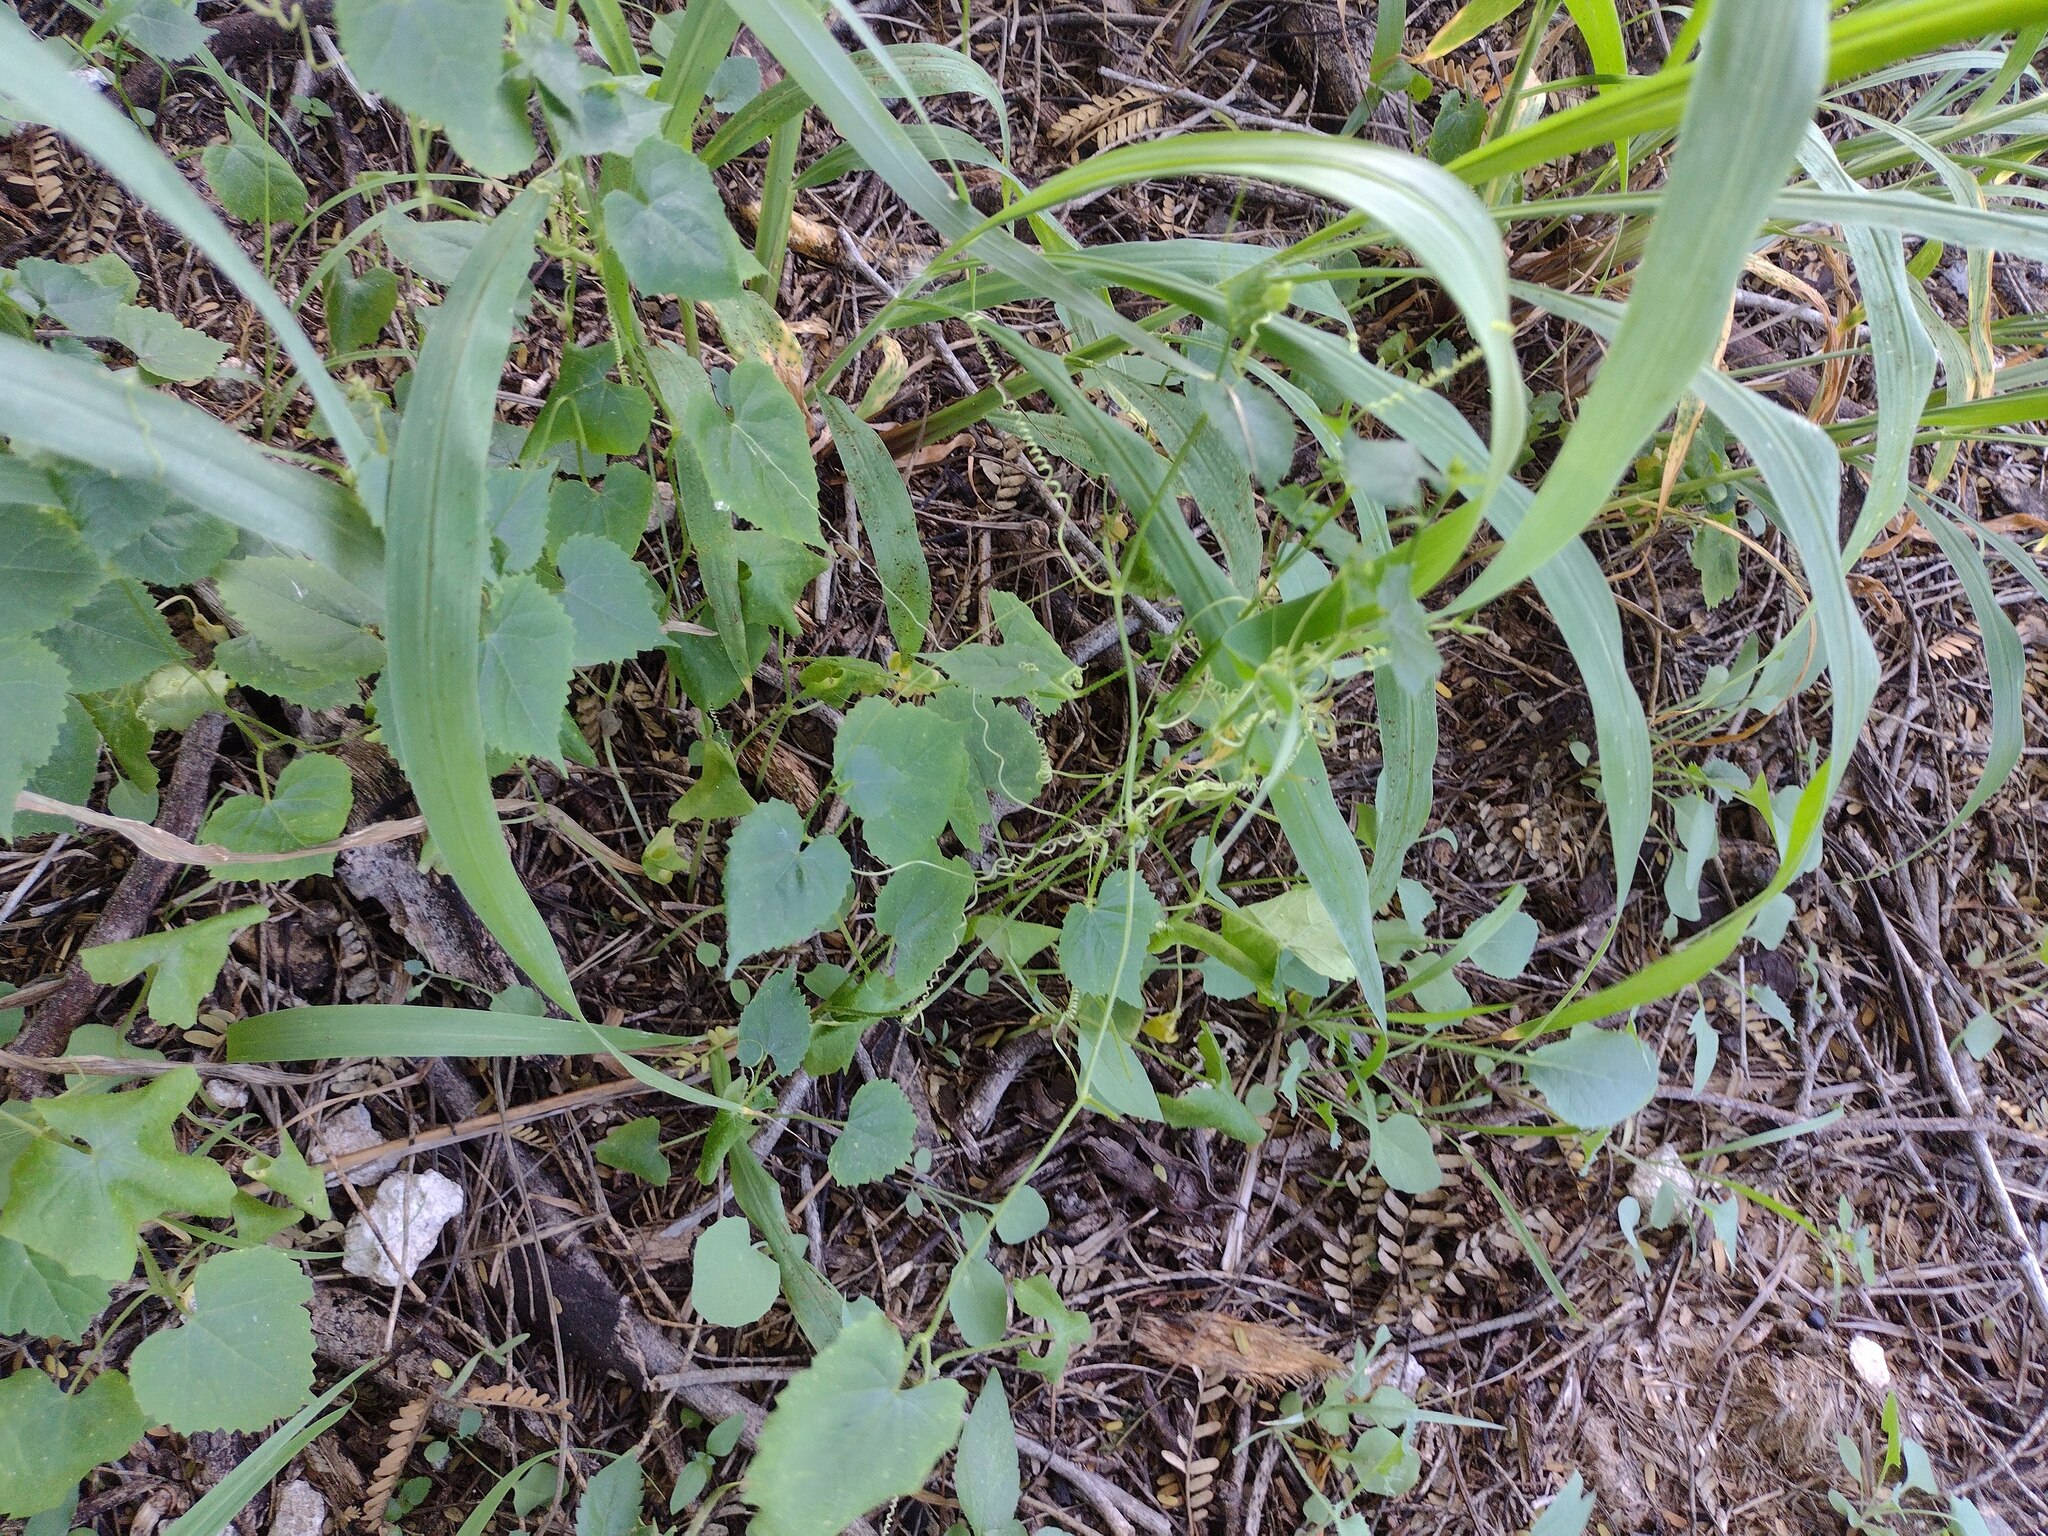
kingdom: Plantae
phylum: Tracheophyta
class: Magnoliopsida
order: Cucurbitales
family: Cucurbitaceae
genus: Sicyos
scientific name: Sicyos pachycarpa
